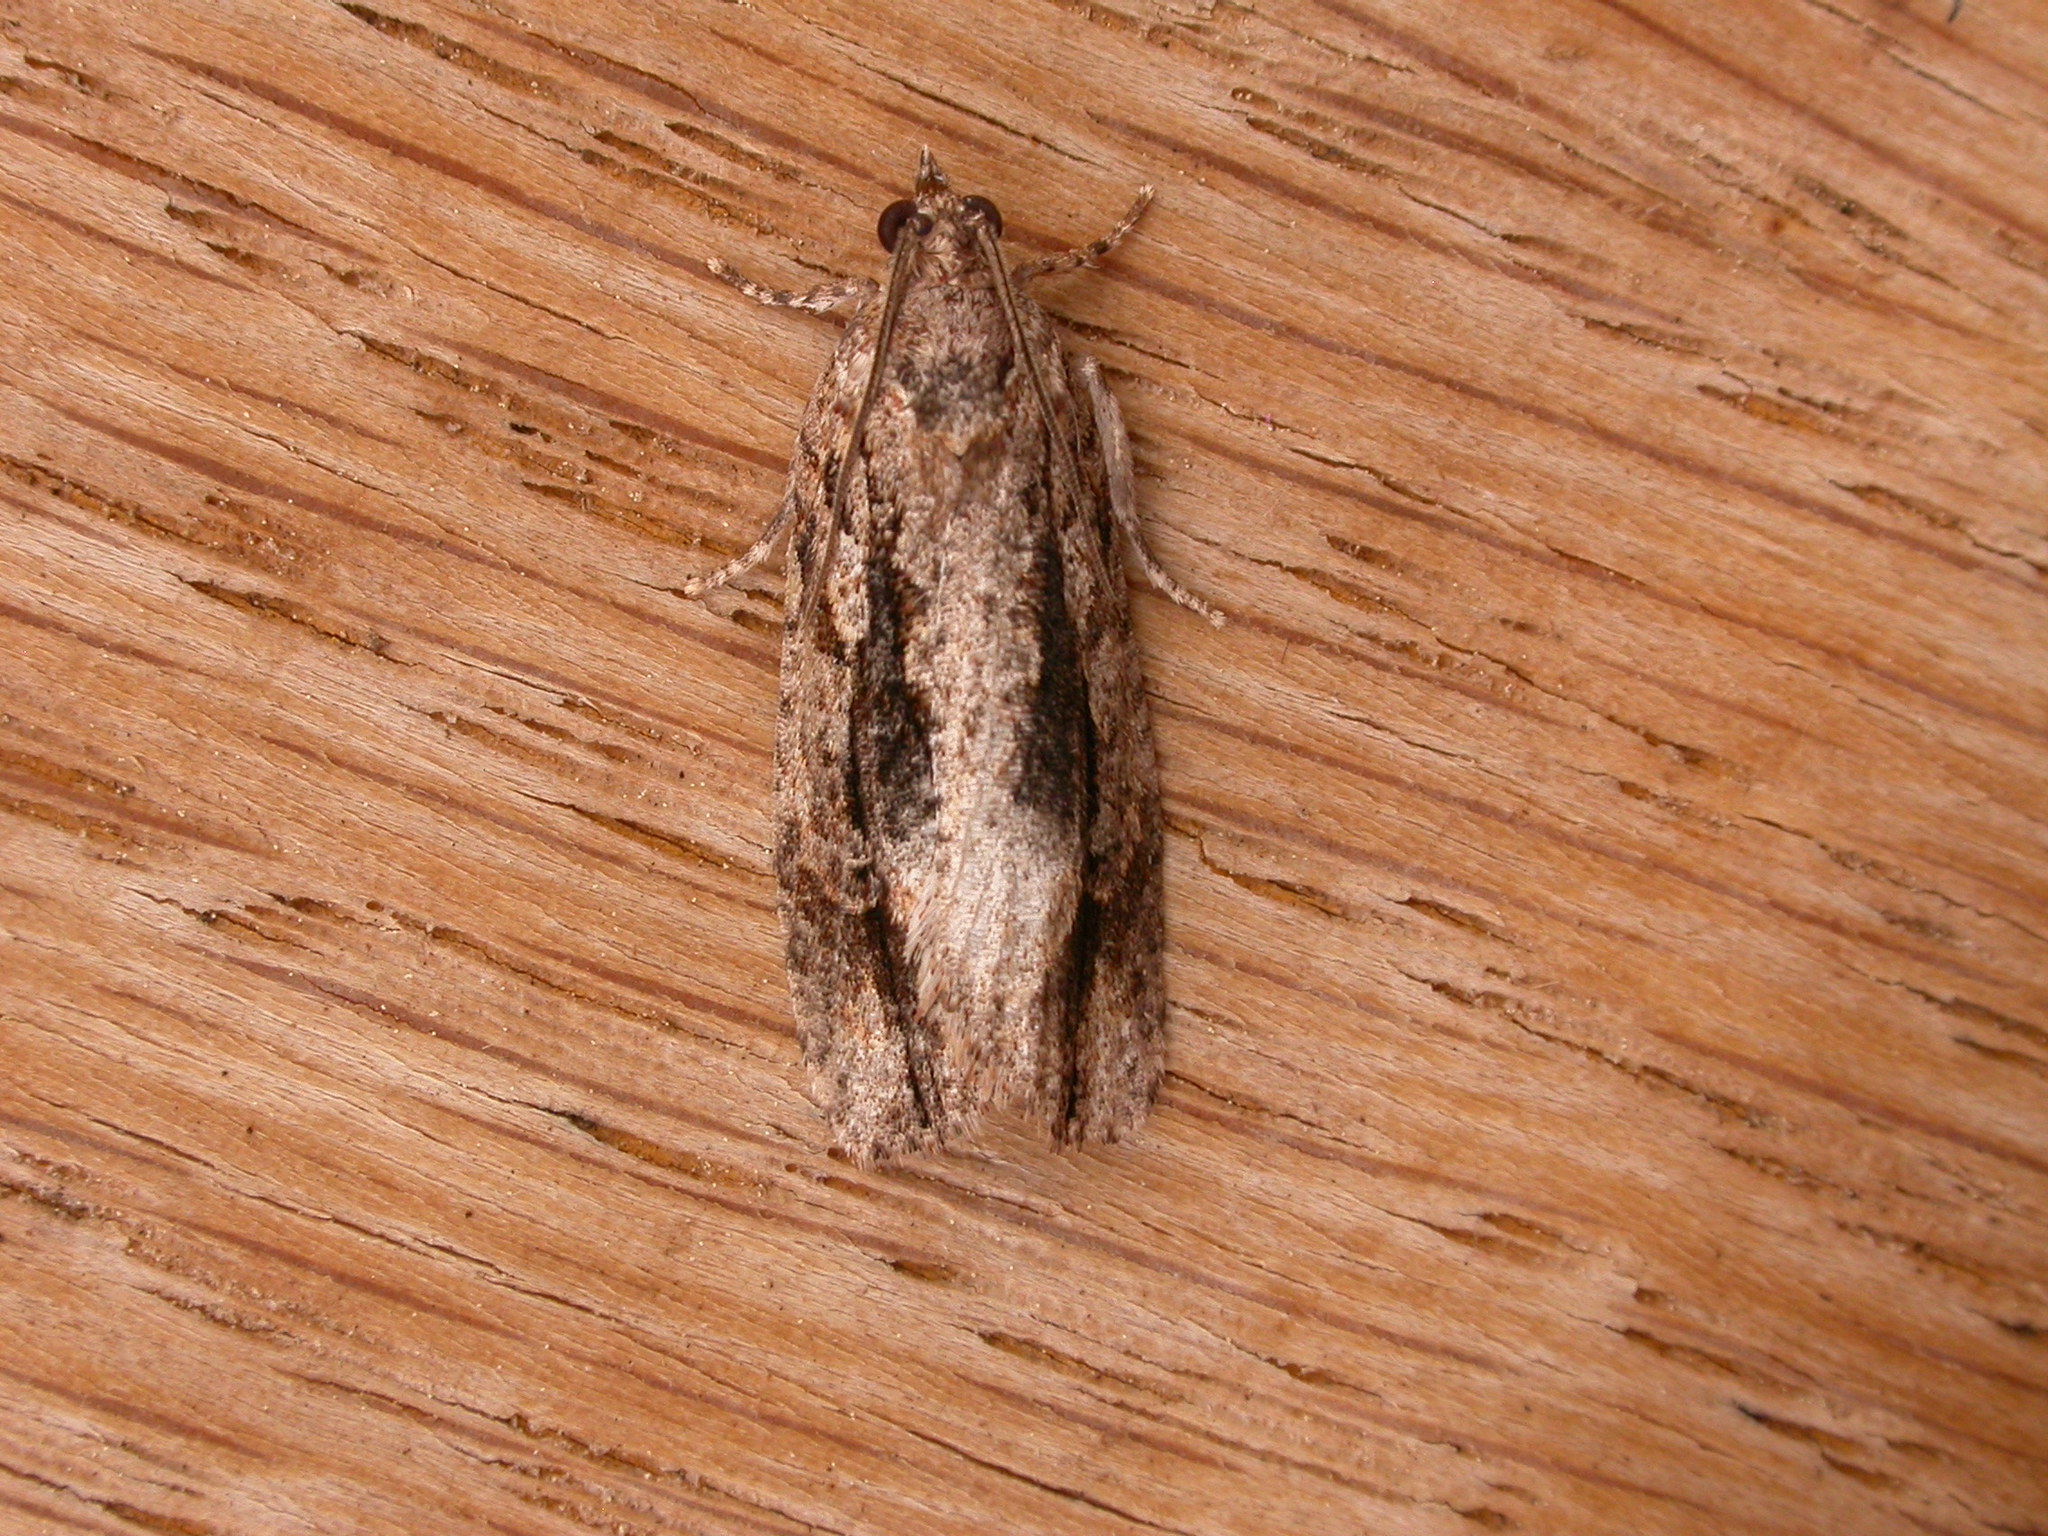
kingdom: Animalia
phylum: Arthropoda
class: Insecta
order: Lepidoptera
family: Tortricidae
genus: Thrincophora
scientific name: Thrincophora lignigerana
